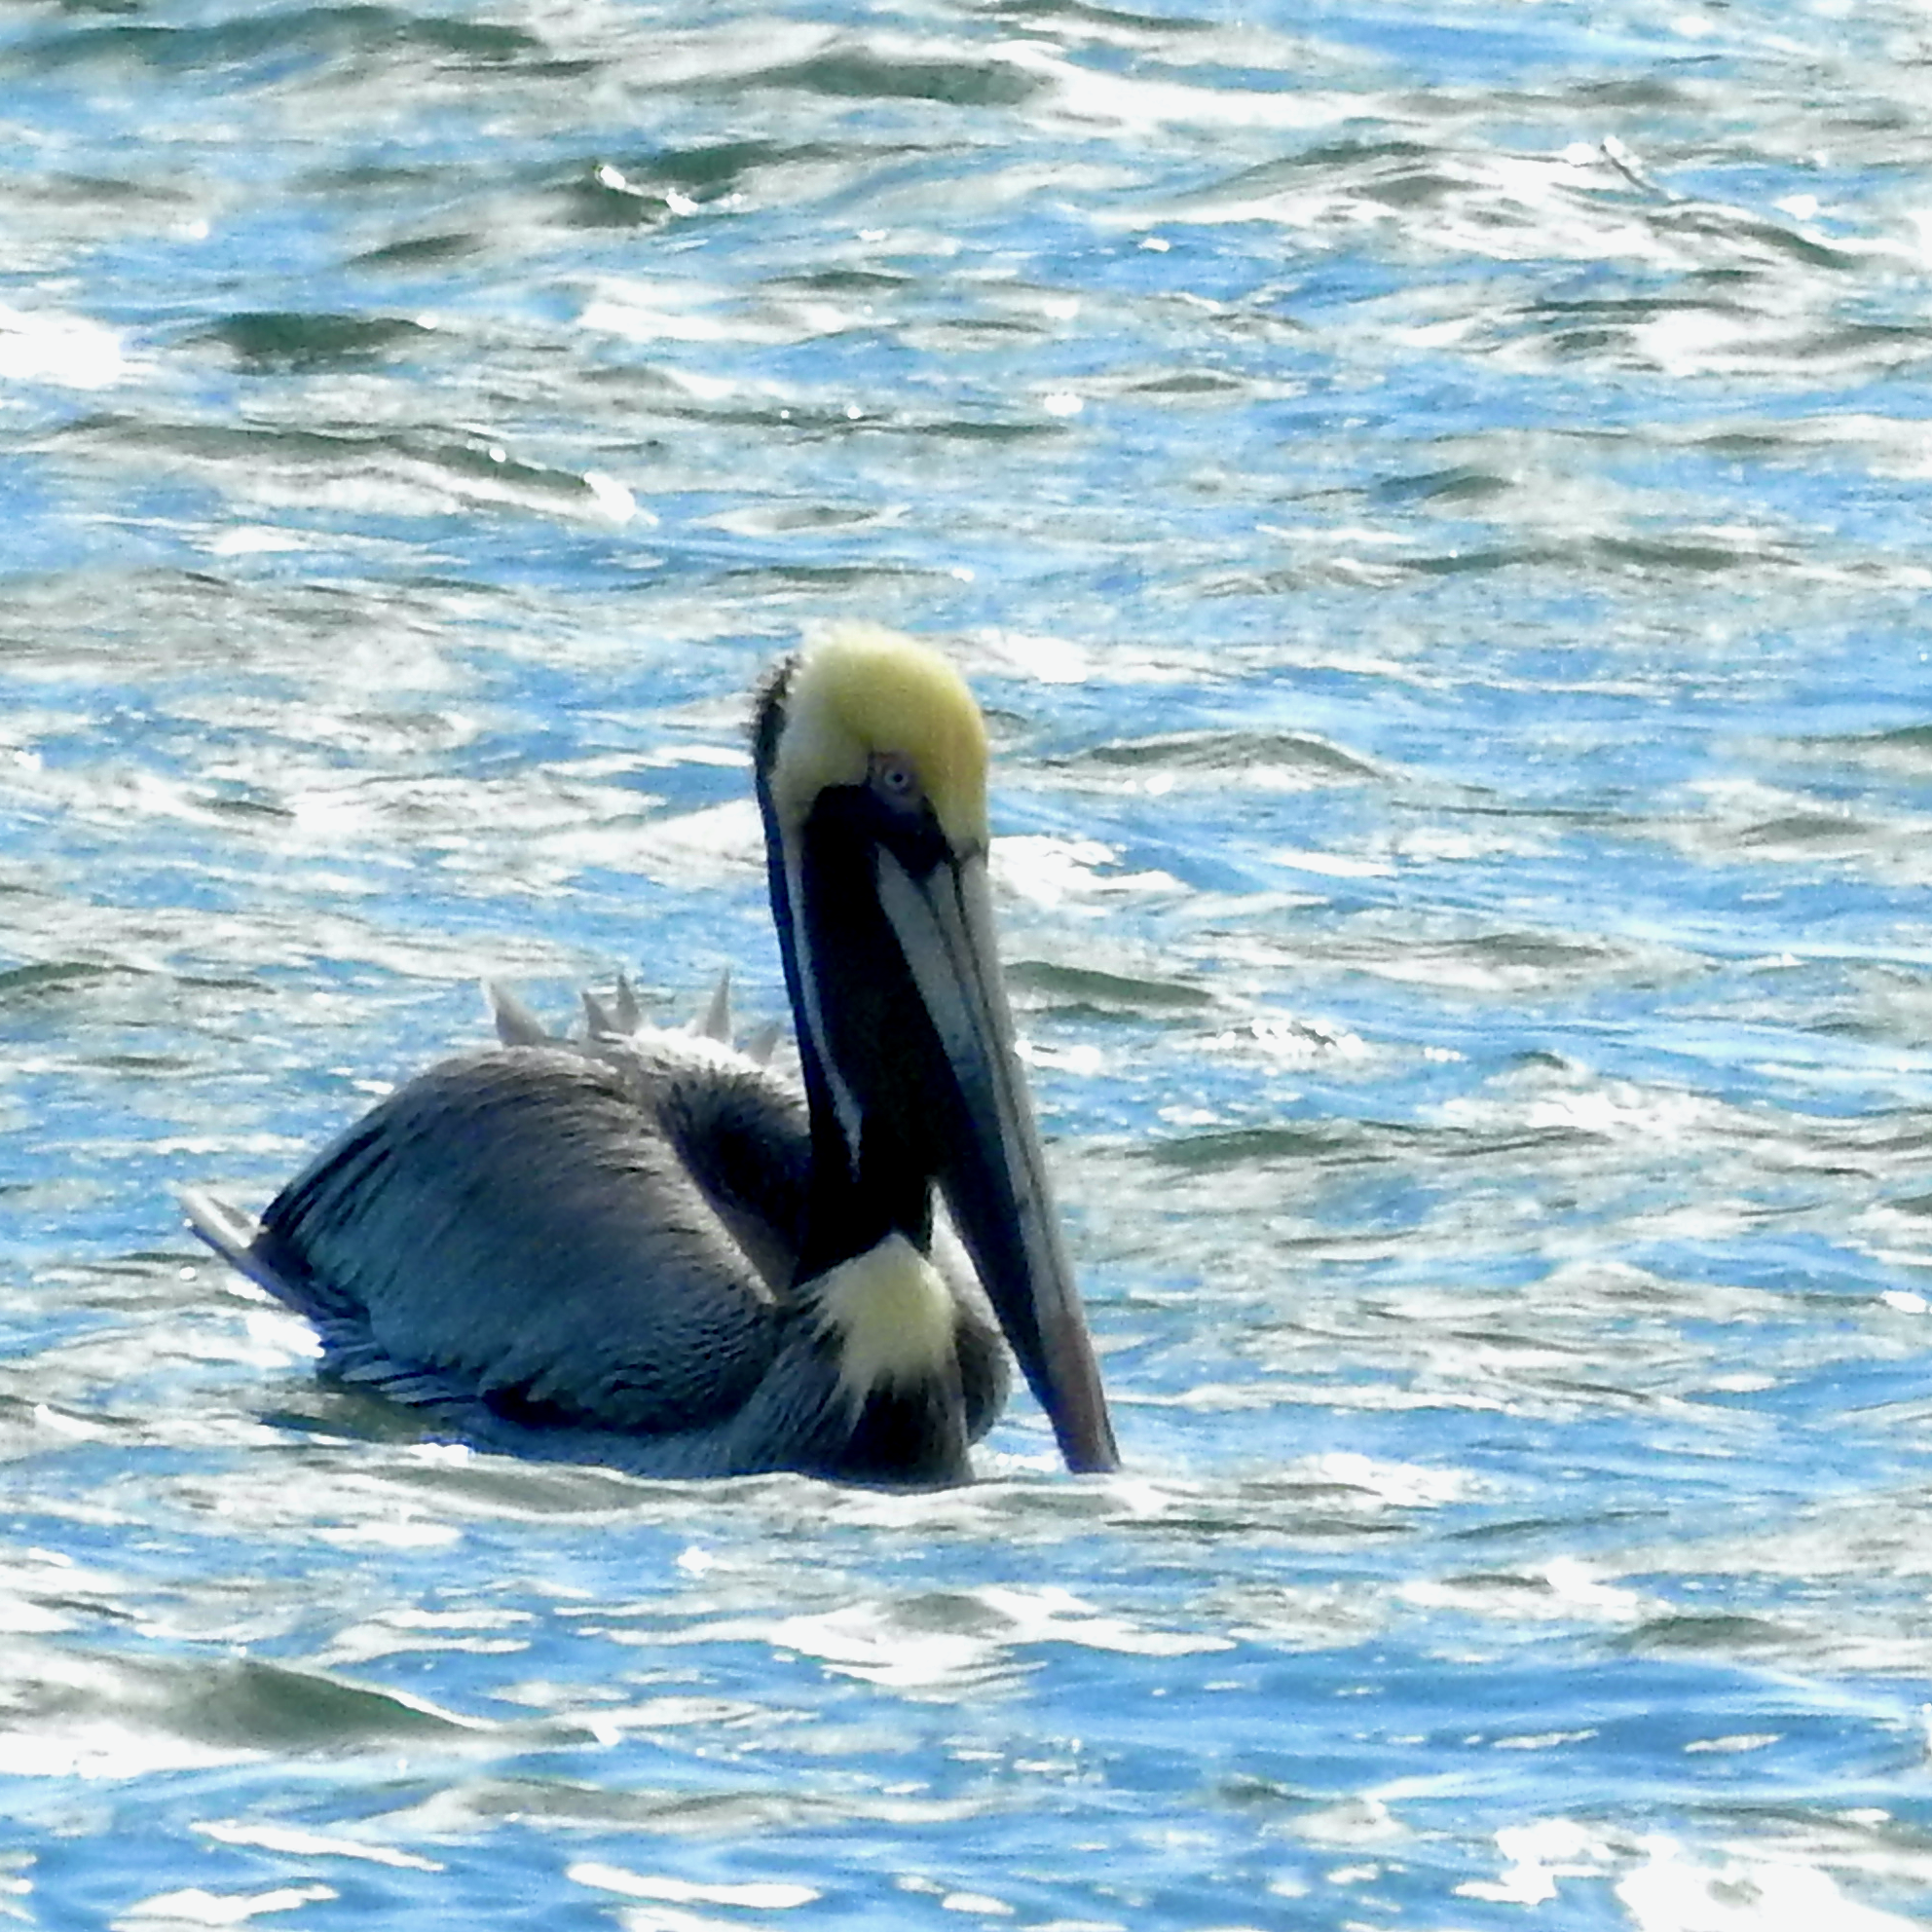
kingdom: Animalia
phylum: Chordata
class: Aves
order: Pelecaniformes
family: Pelecanidae
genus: Pelecanus
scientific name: Pelecanus occidentalis
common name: Brown pelican
